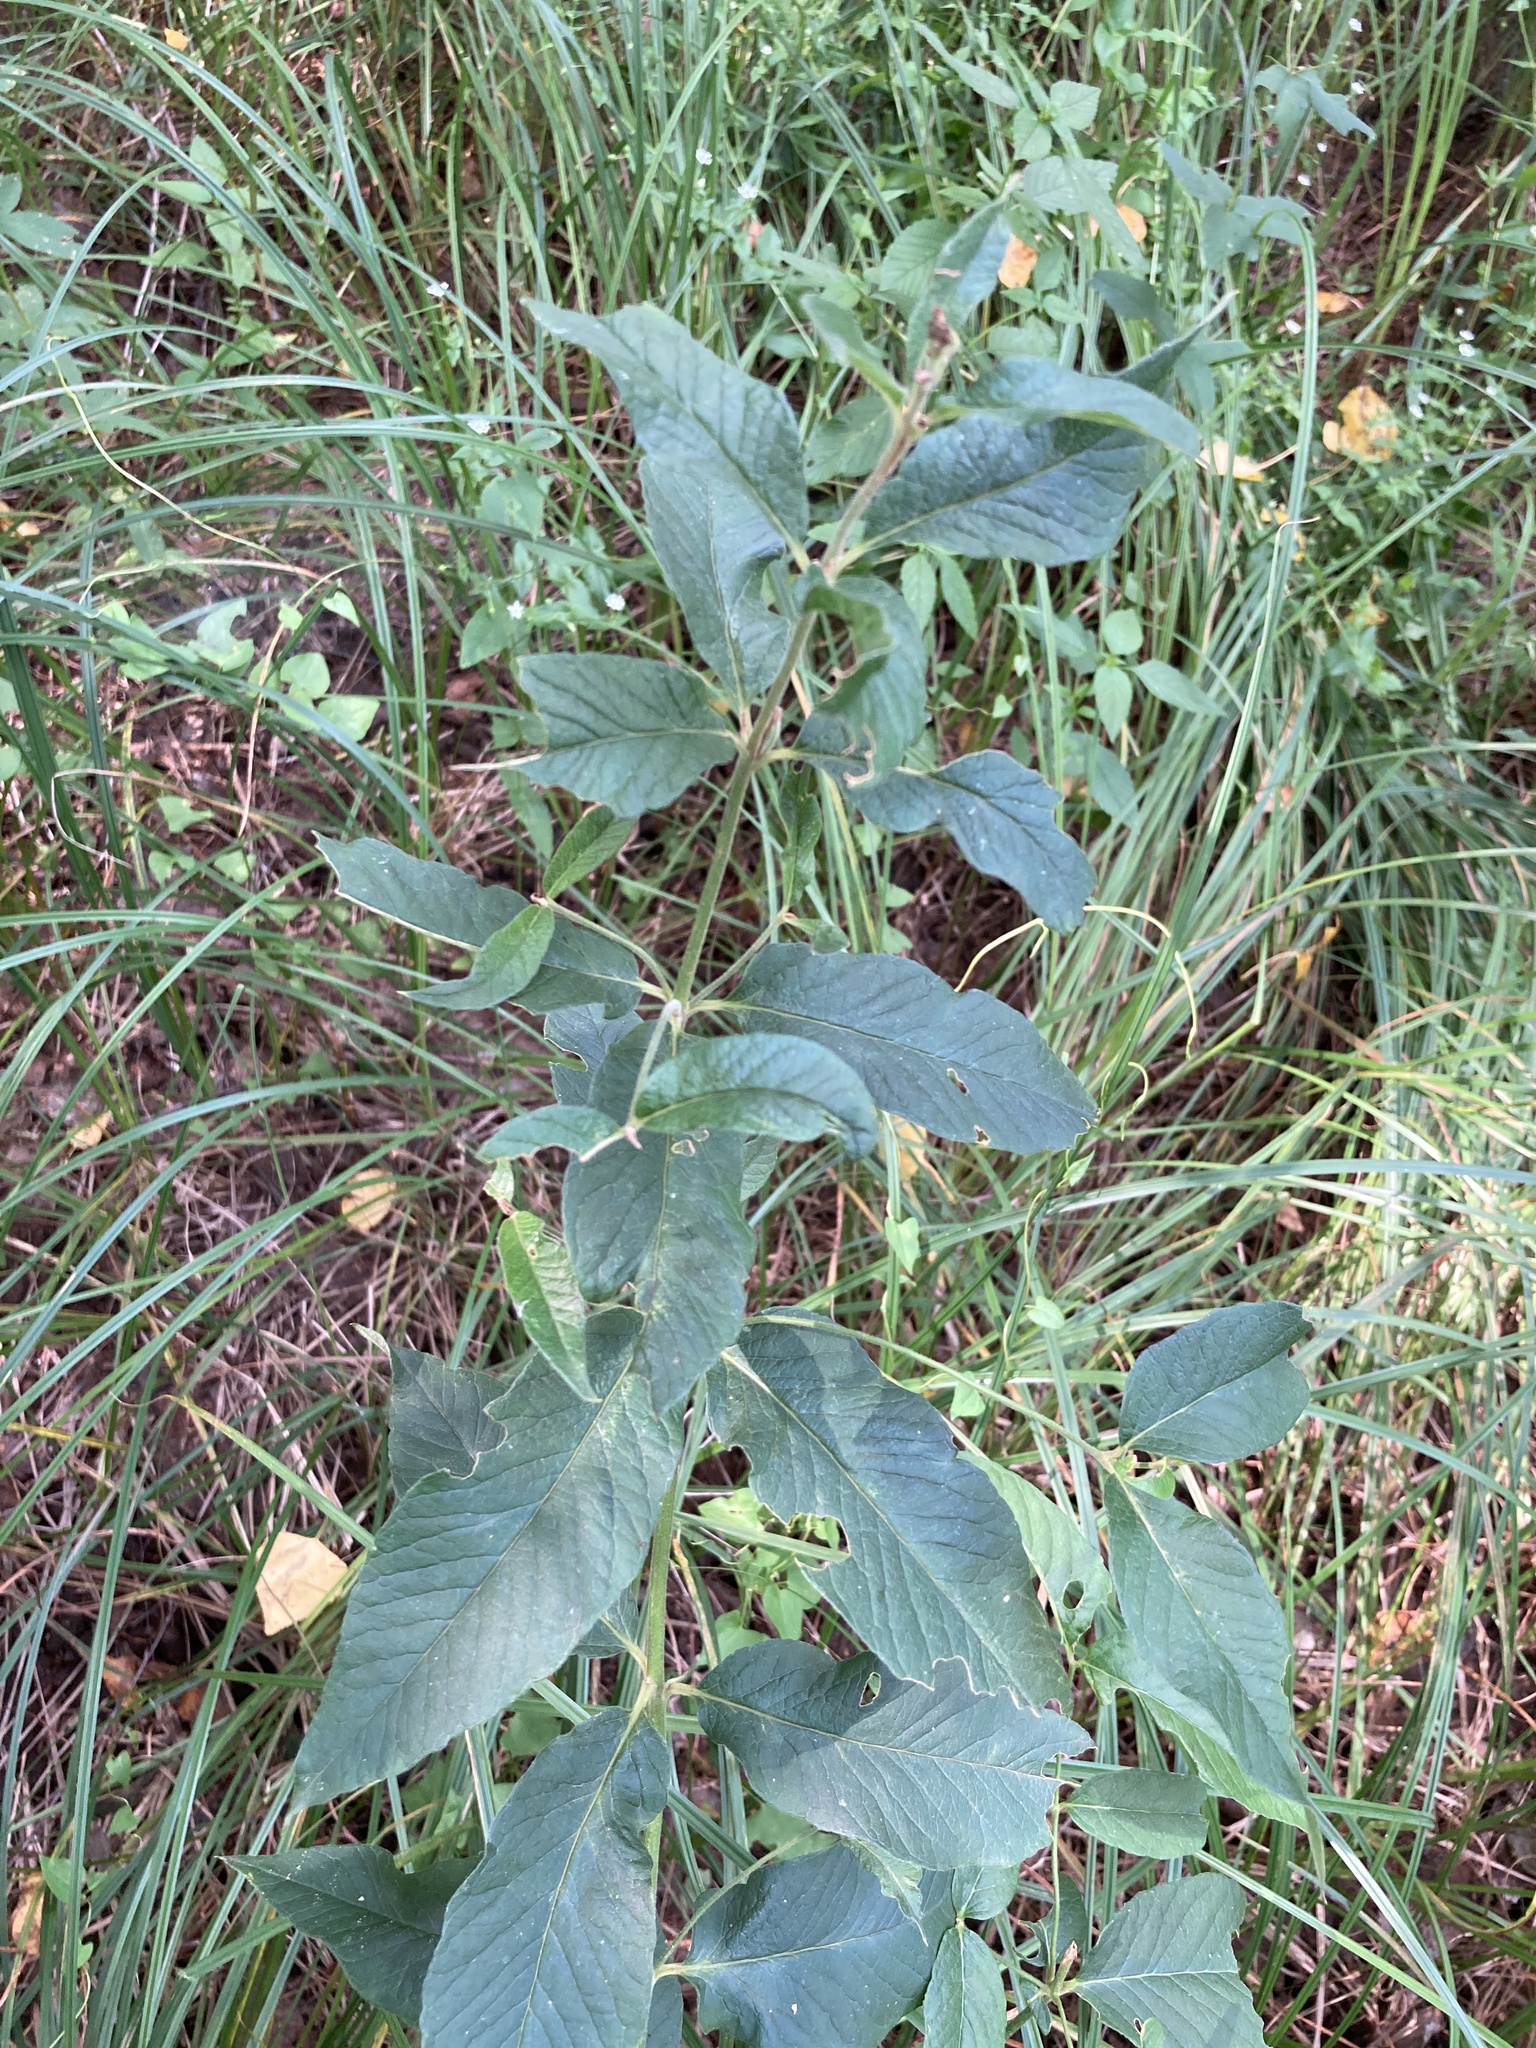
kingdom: Plantae
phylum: Tracheophyta
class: Magnoliopsida
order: Ericales
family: Primulaceae
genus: Lysimachia
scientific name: Lysimachia vulgaris
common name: Yellow loosestrife
